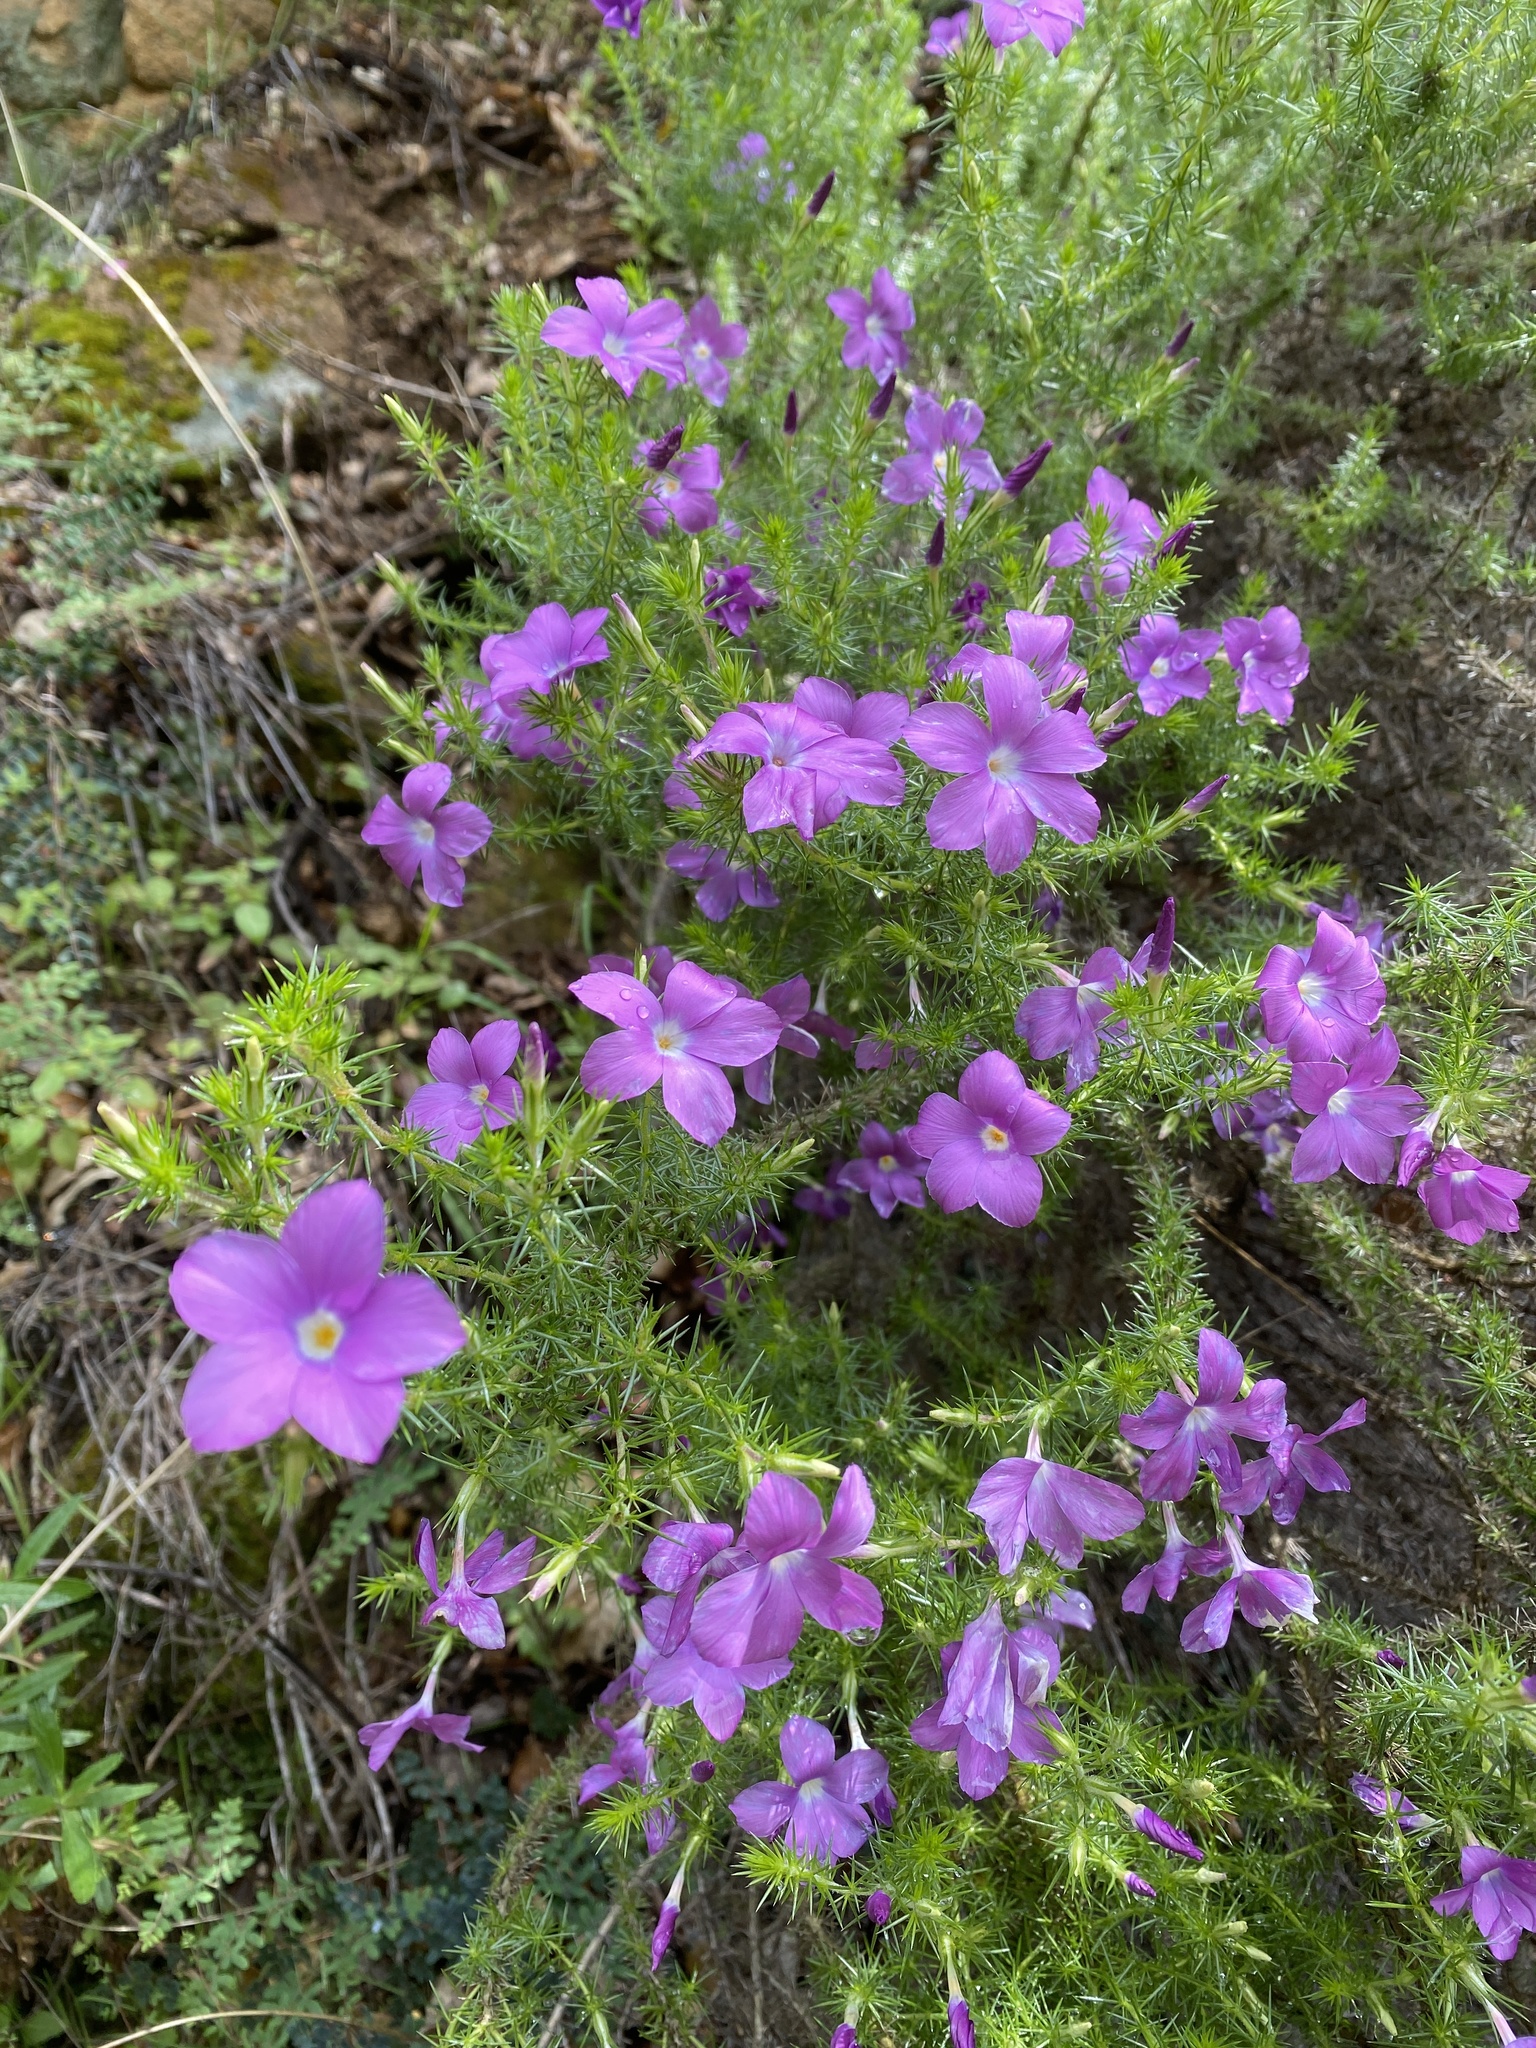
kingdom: Plantae
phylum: Tracheophyta
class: Magnoliopsida
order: Ericales
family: Polemoniaceae
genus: Linanthus
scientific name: Linanthus californicus
